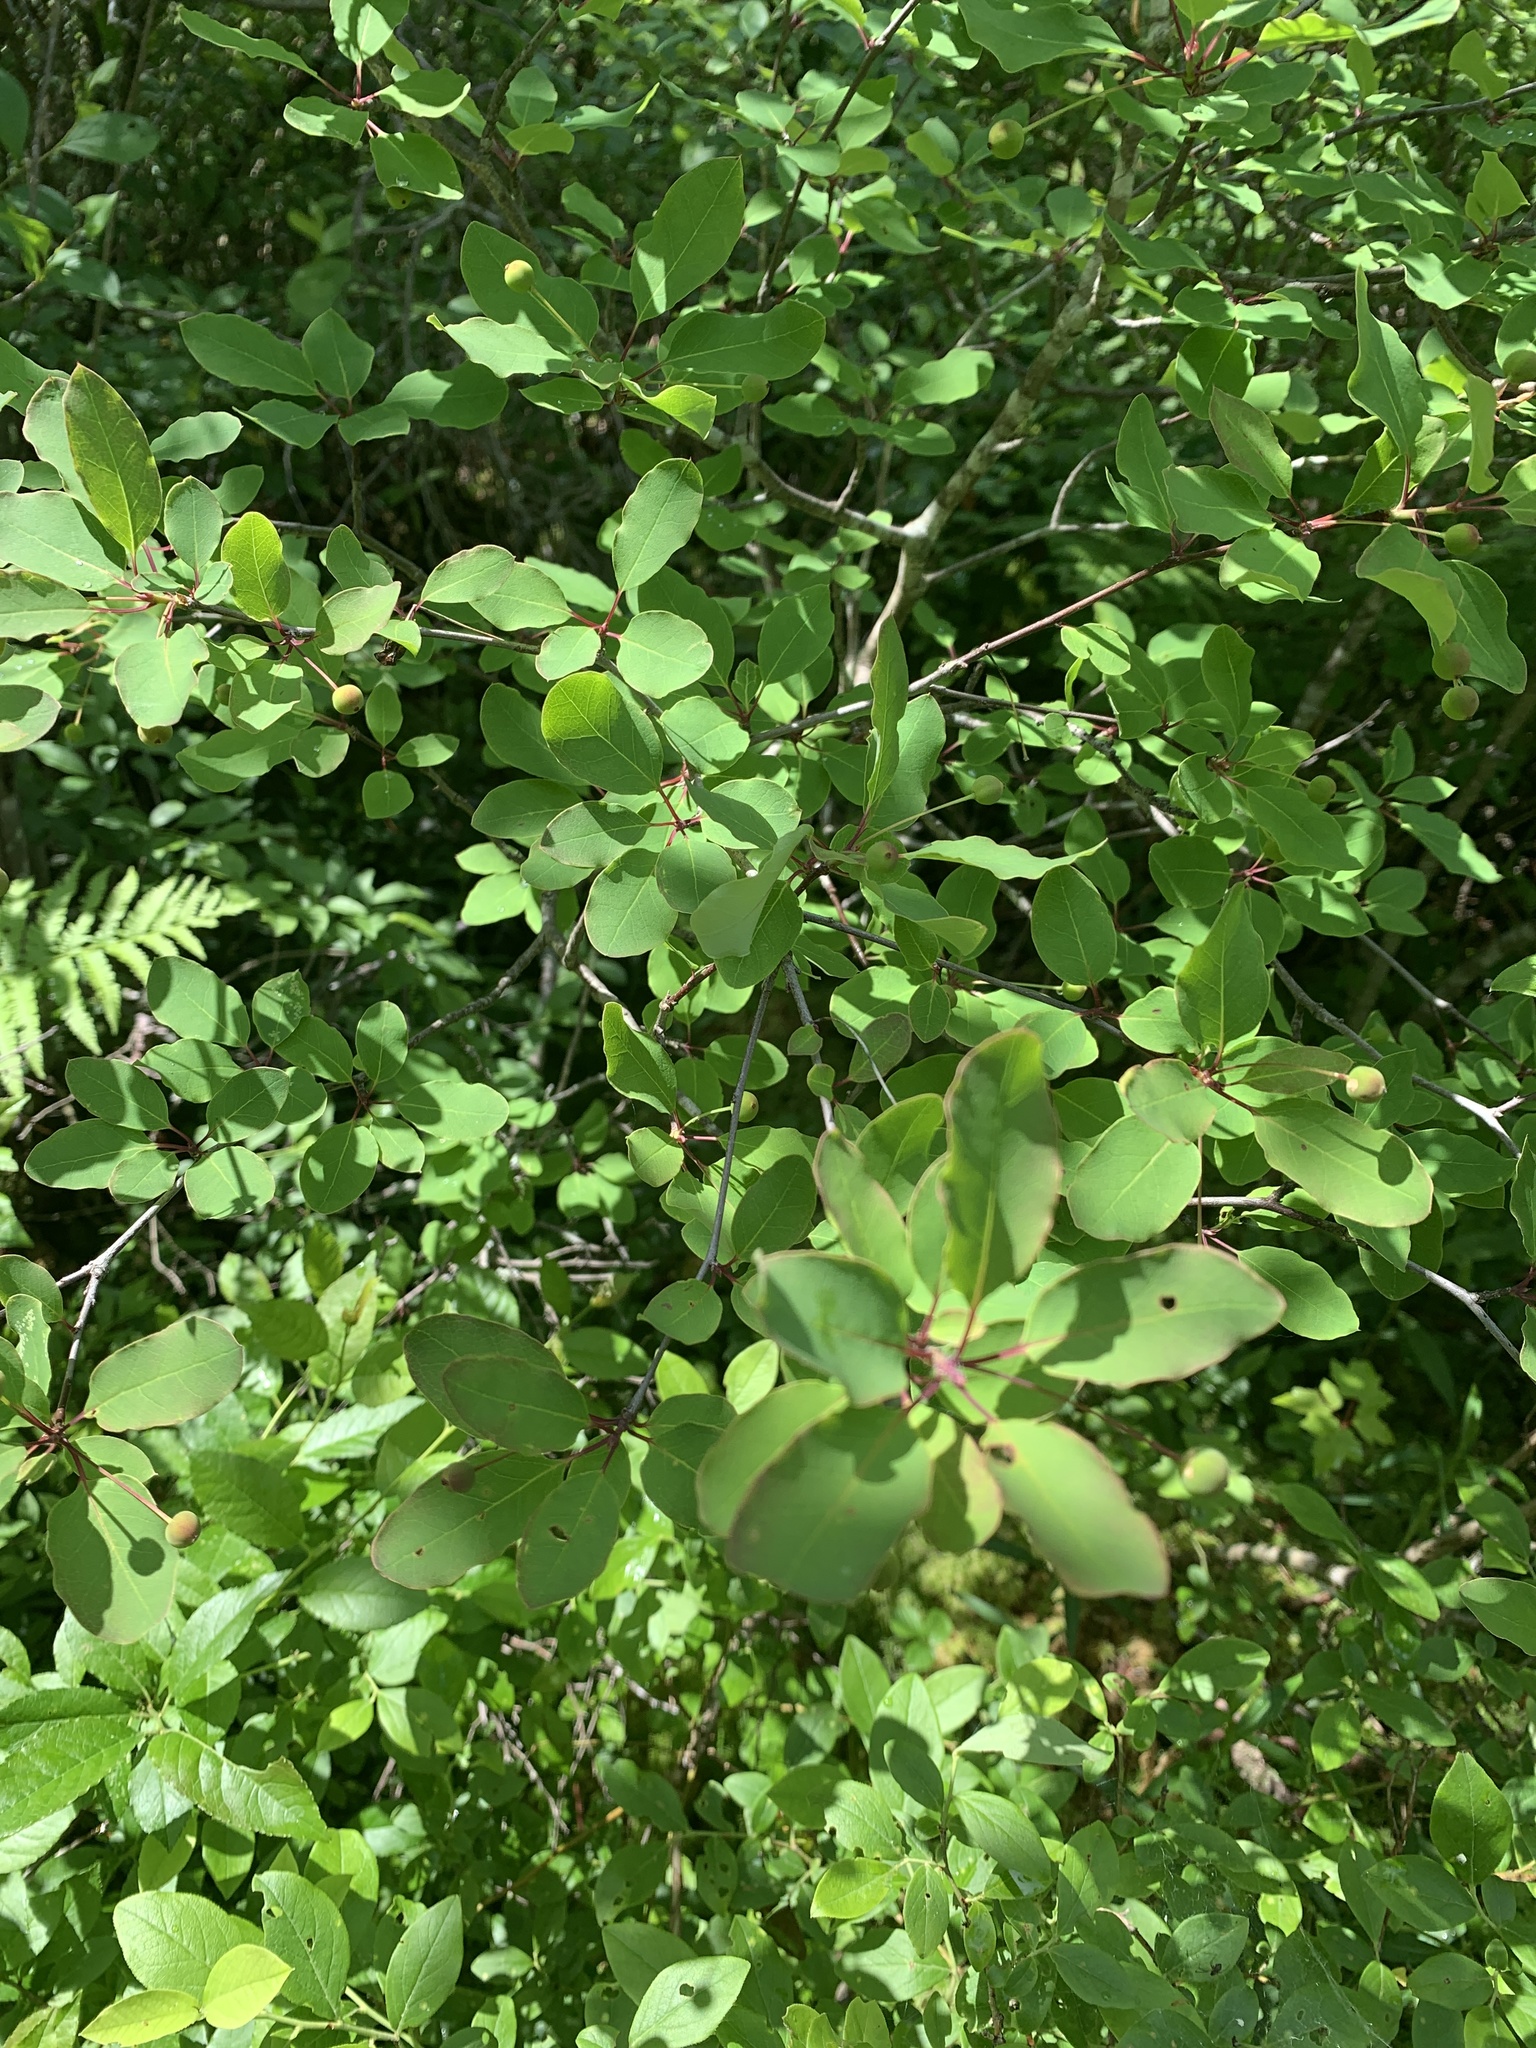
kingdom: Plantae
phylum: Tracheophyta
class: Magnoliopsida
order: Aquifoliales
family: Aquifoliaceae
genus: Ilex
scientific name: Ilex mucronata
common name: Catberry
